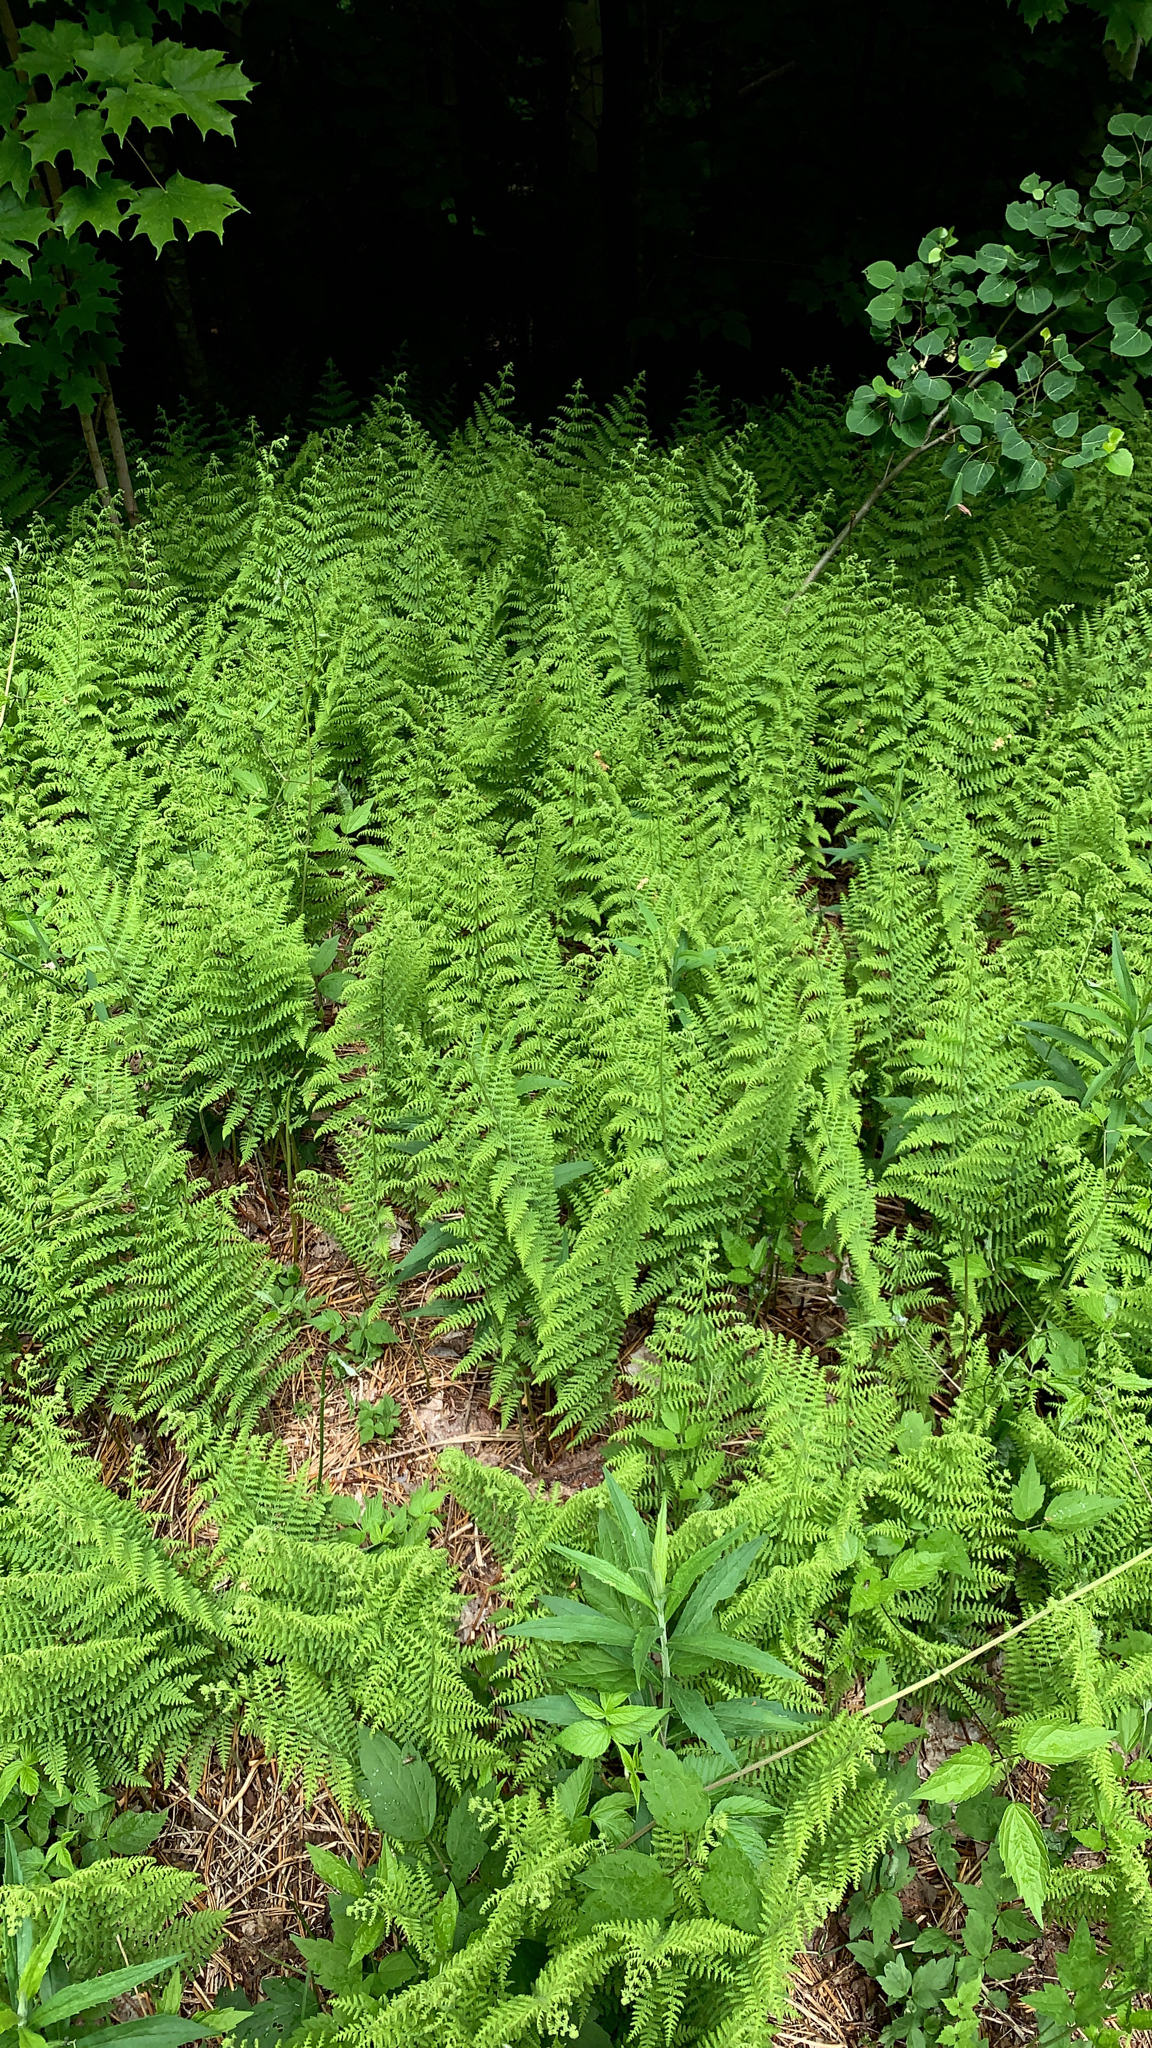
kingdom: Plantae
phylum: Tracheophyta
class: Polypodiopsida
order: Polypodiales
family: Dennstaedtiaceae
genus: Sitobolium
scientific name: Sitobolium punctilobum
